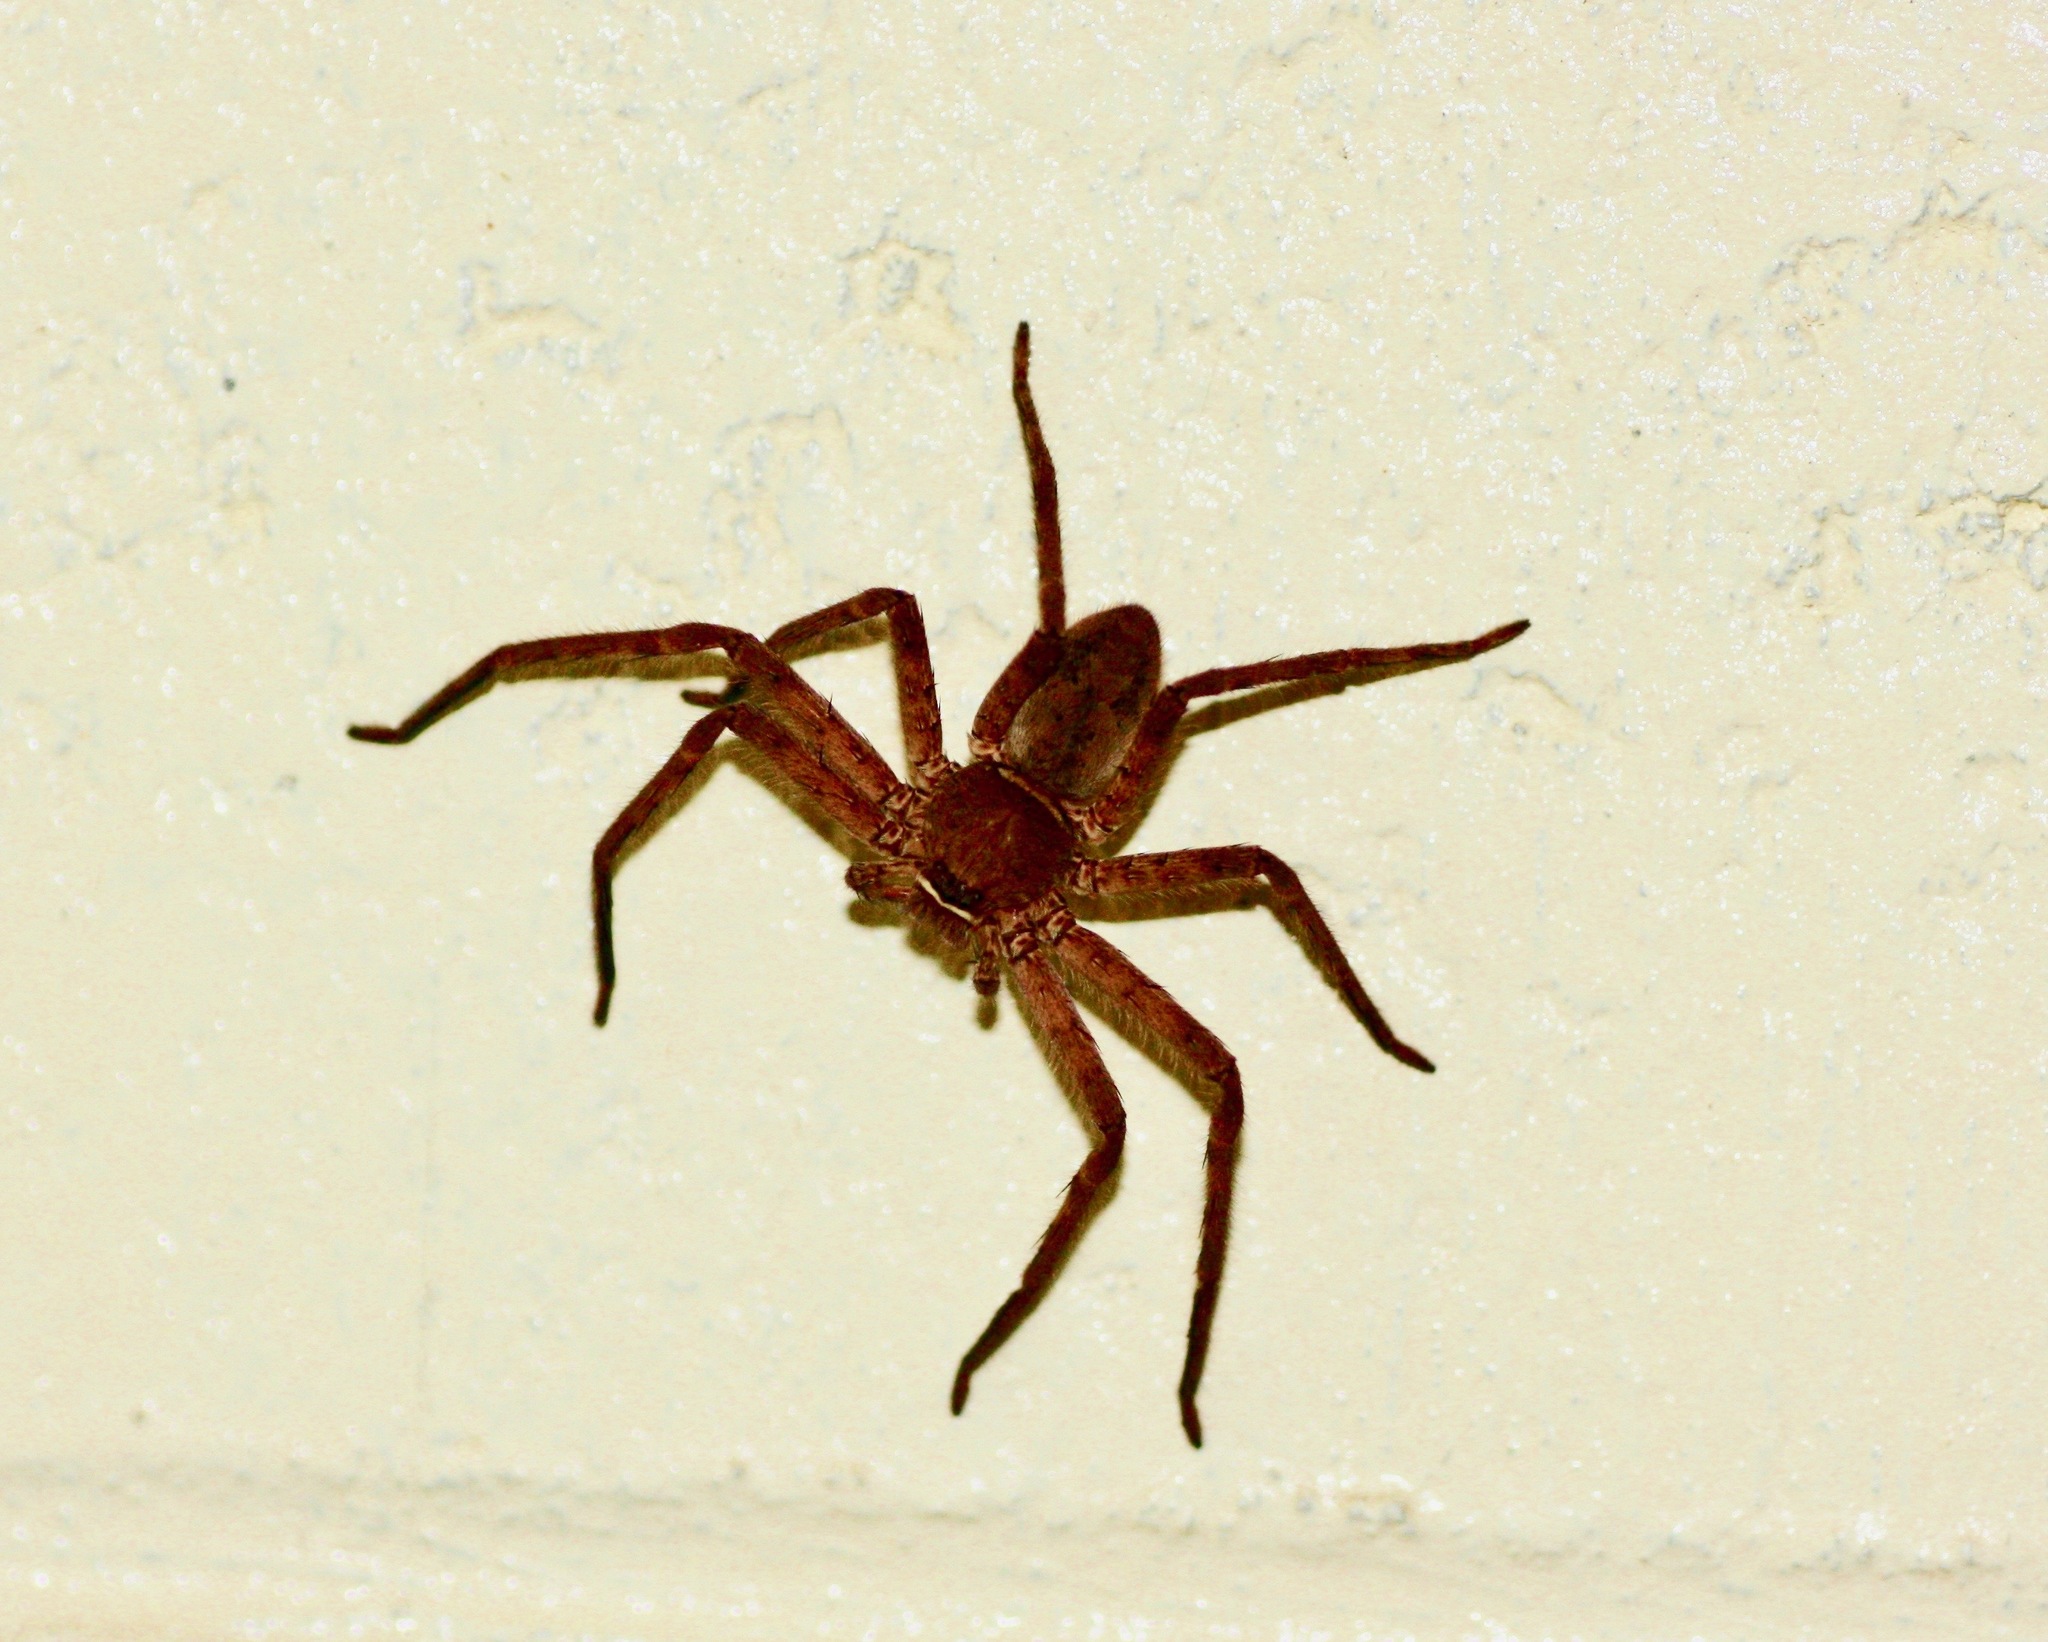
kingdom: Animalia
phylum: Arthropoda
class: Arachnida
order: Araneae
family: Sparassidae
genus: Heteropoda
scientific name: Heteropoda venatoria
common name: Huntsman spider
